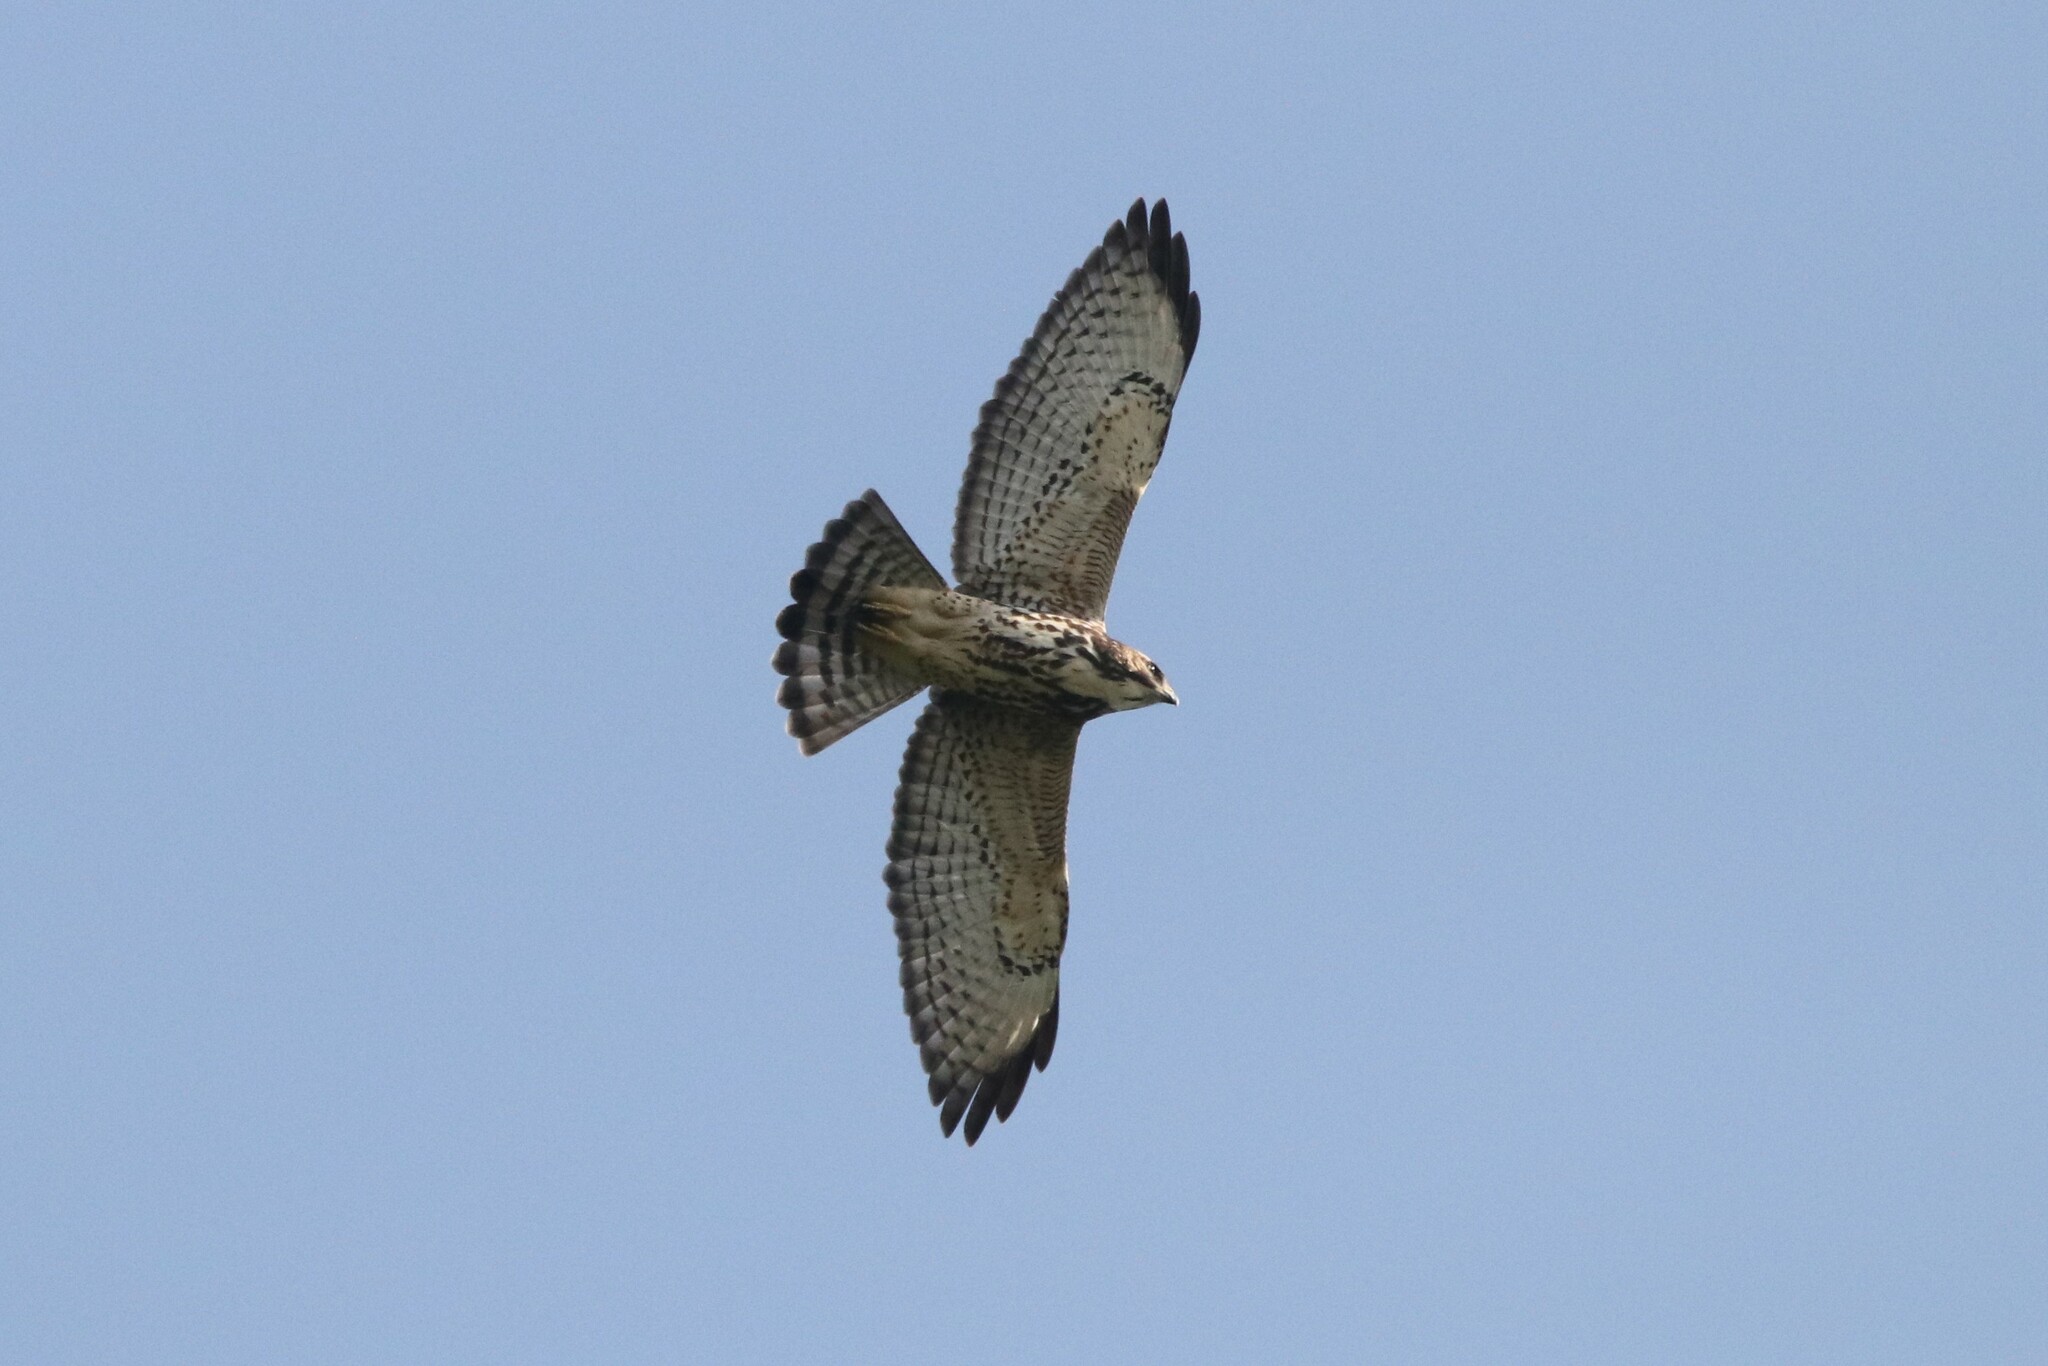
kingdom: Animalia
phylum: Chordata
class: Aves
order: Accipitriformes
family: Accipitridae
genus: Buteo
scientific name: Buteo platypterus
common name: Broad-winged hawk
